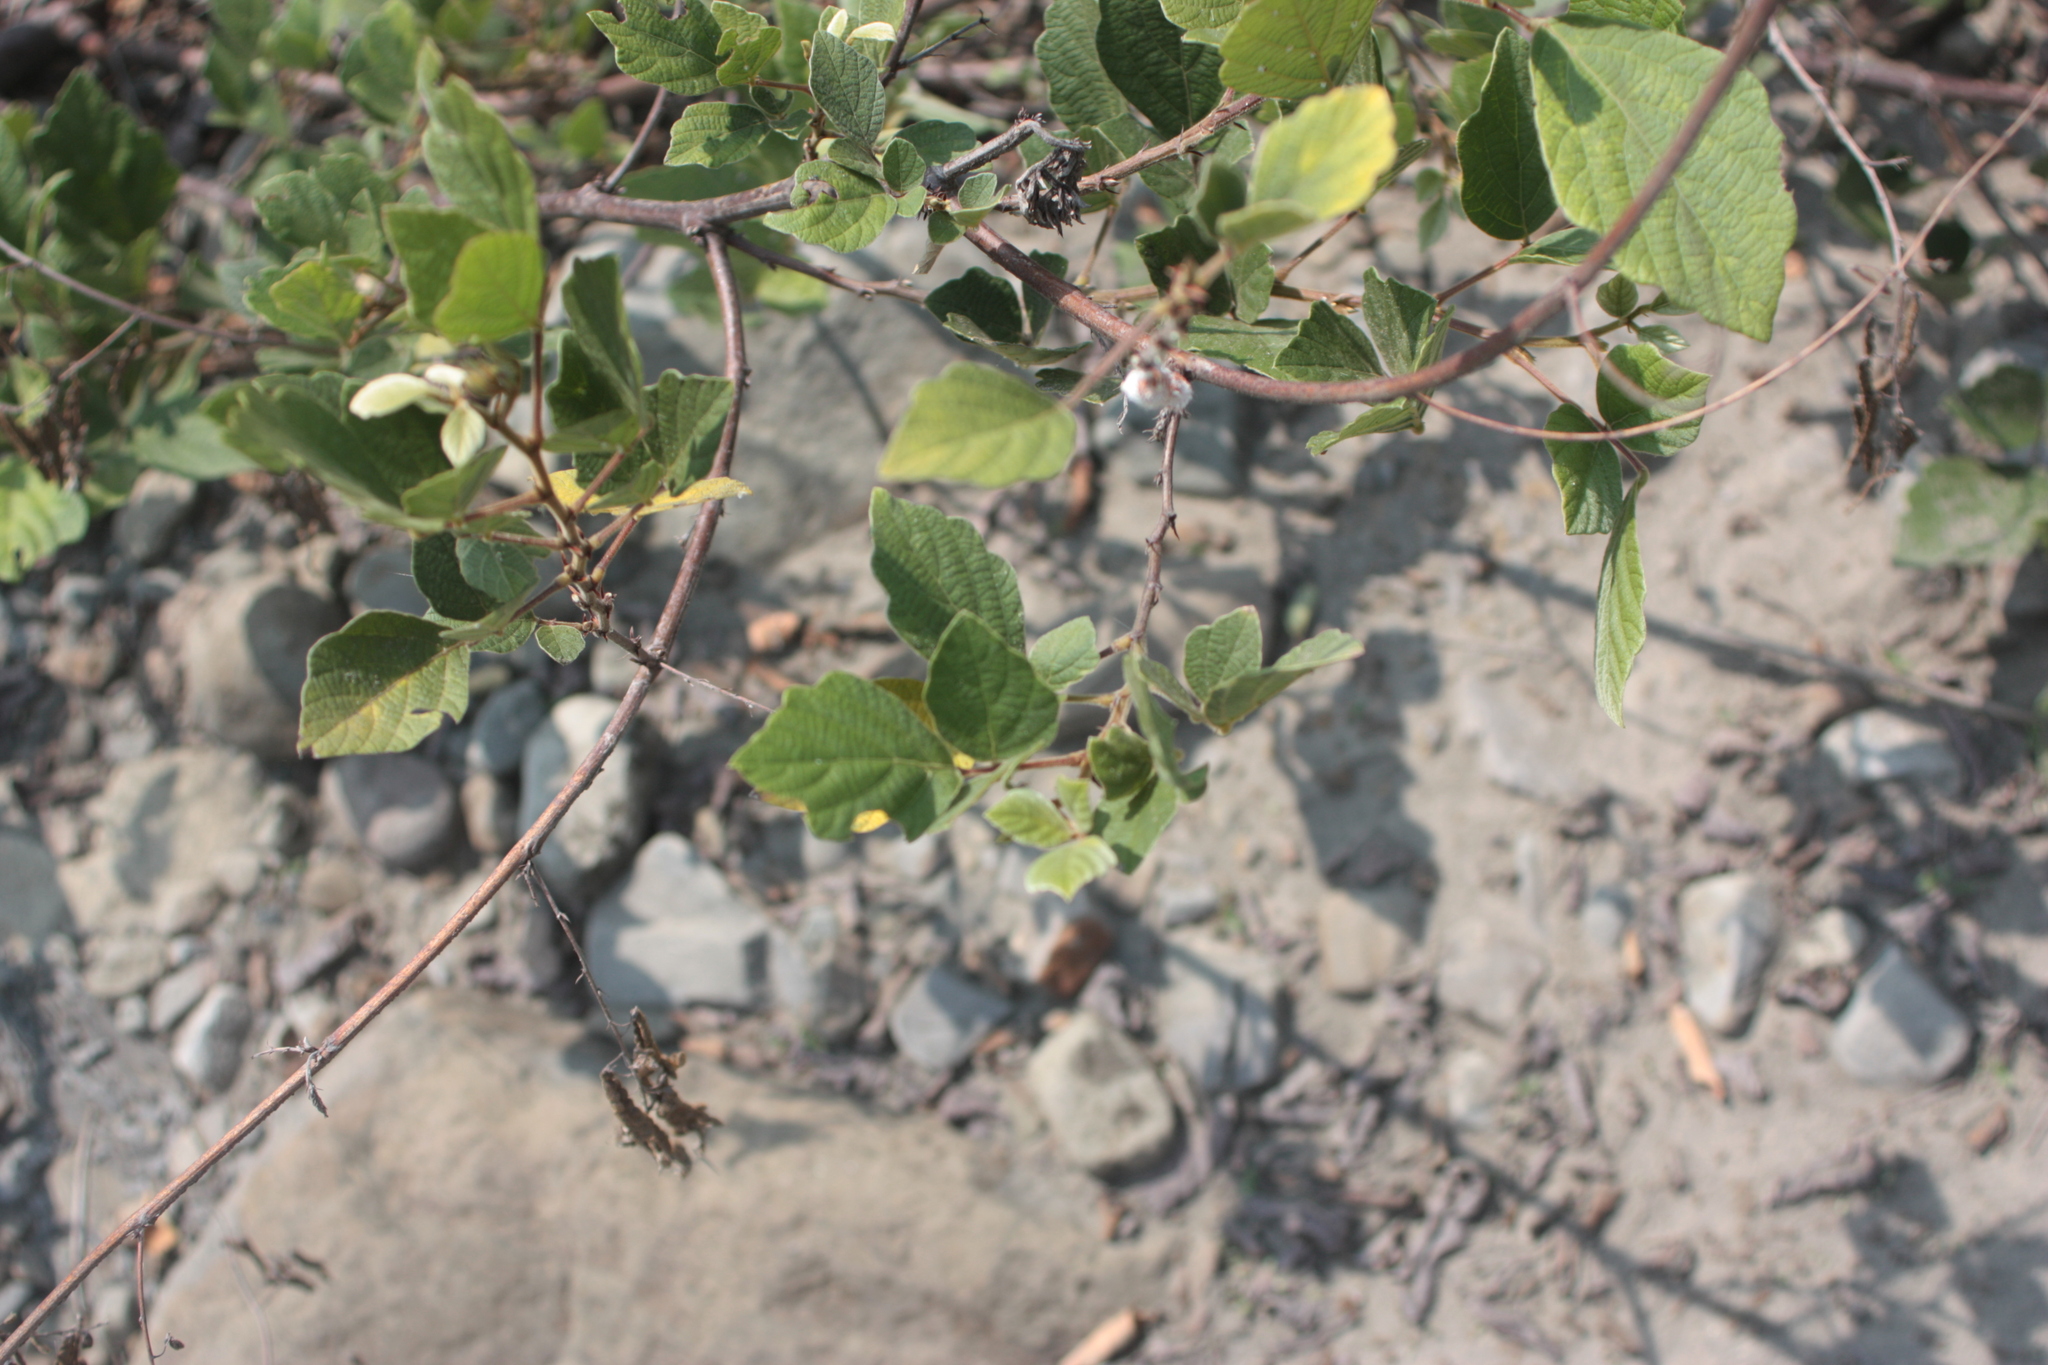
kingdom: Plantae
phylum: Tracheophyta
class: Magnoliopsida
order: Fabales
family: Fabaceae
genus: Puhuaea
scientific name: Puhuaea sequax
